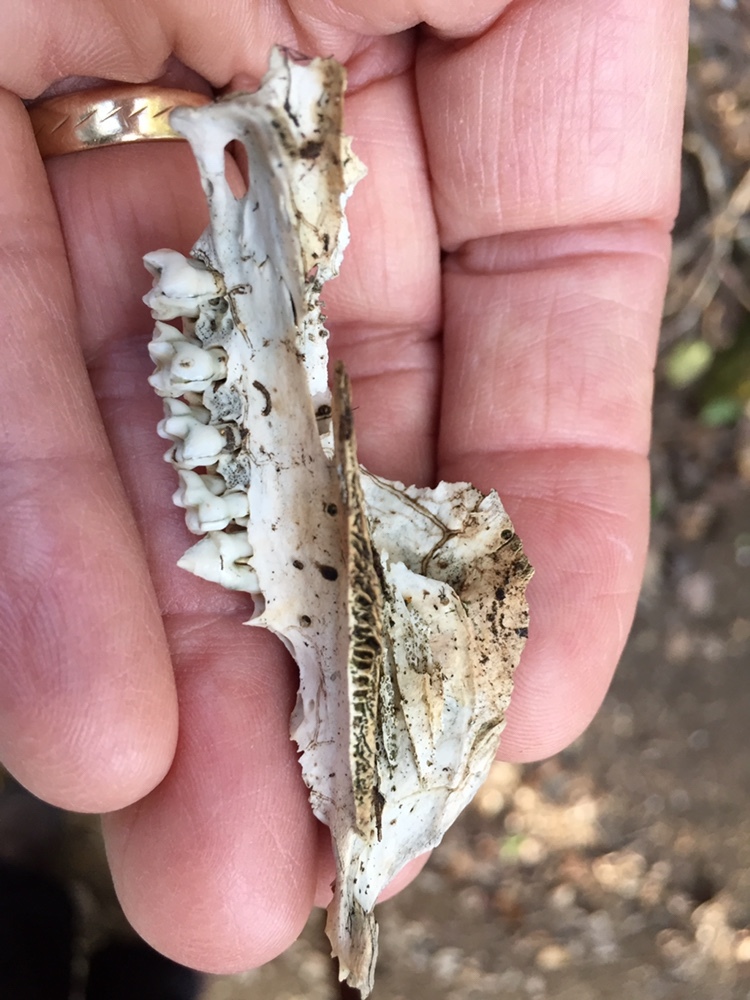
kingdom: Animalia
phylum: Chordata
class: Mammalia
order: Didelphimorphia
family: Didelphidae
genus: Didelphis
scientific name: Didelphis virginiana
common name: Virginia opossum
